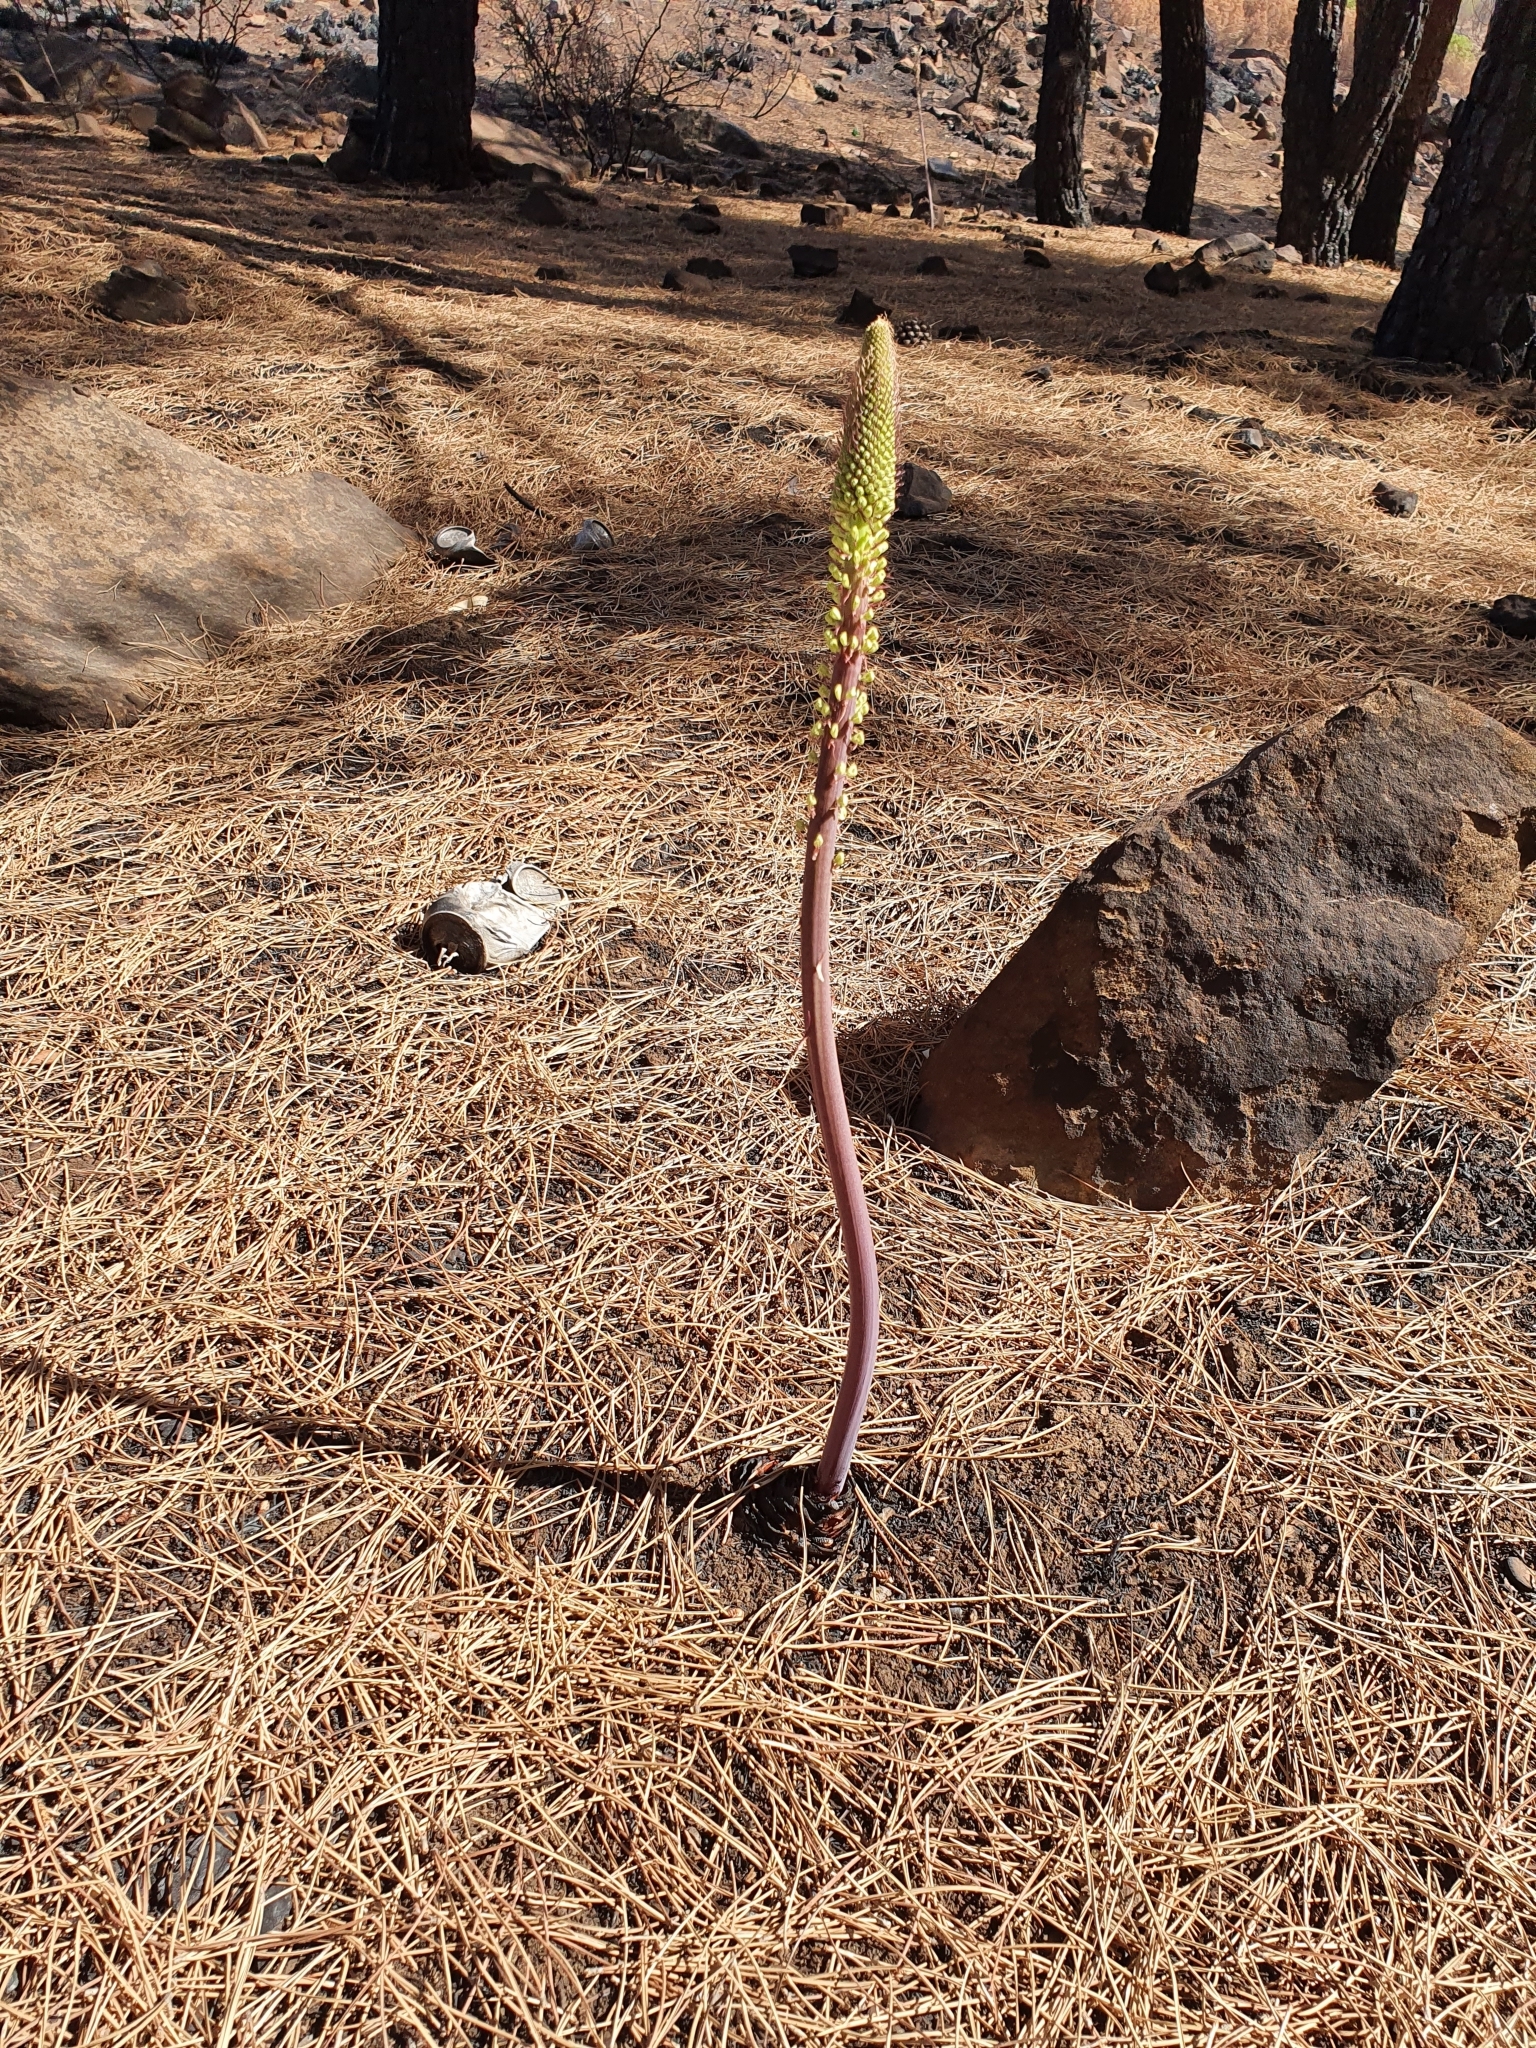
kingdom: Plantae
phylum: Tracheophyta
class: Liliopsida
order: Asparagales
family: Asparagaceae
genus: Drimia
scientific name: Drimia numidica
